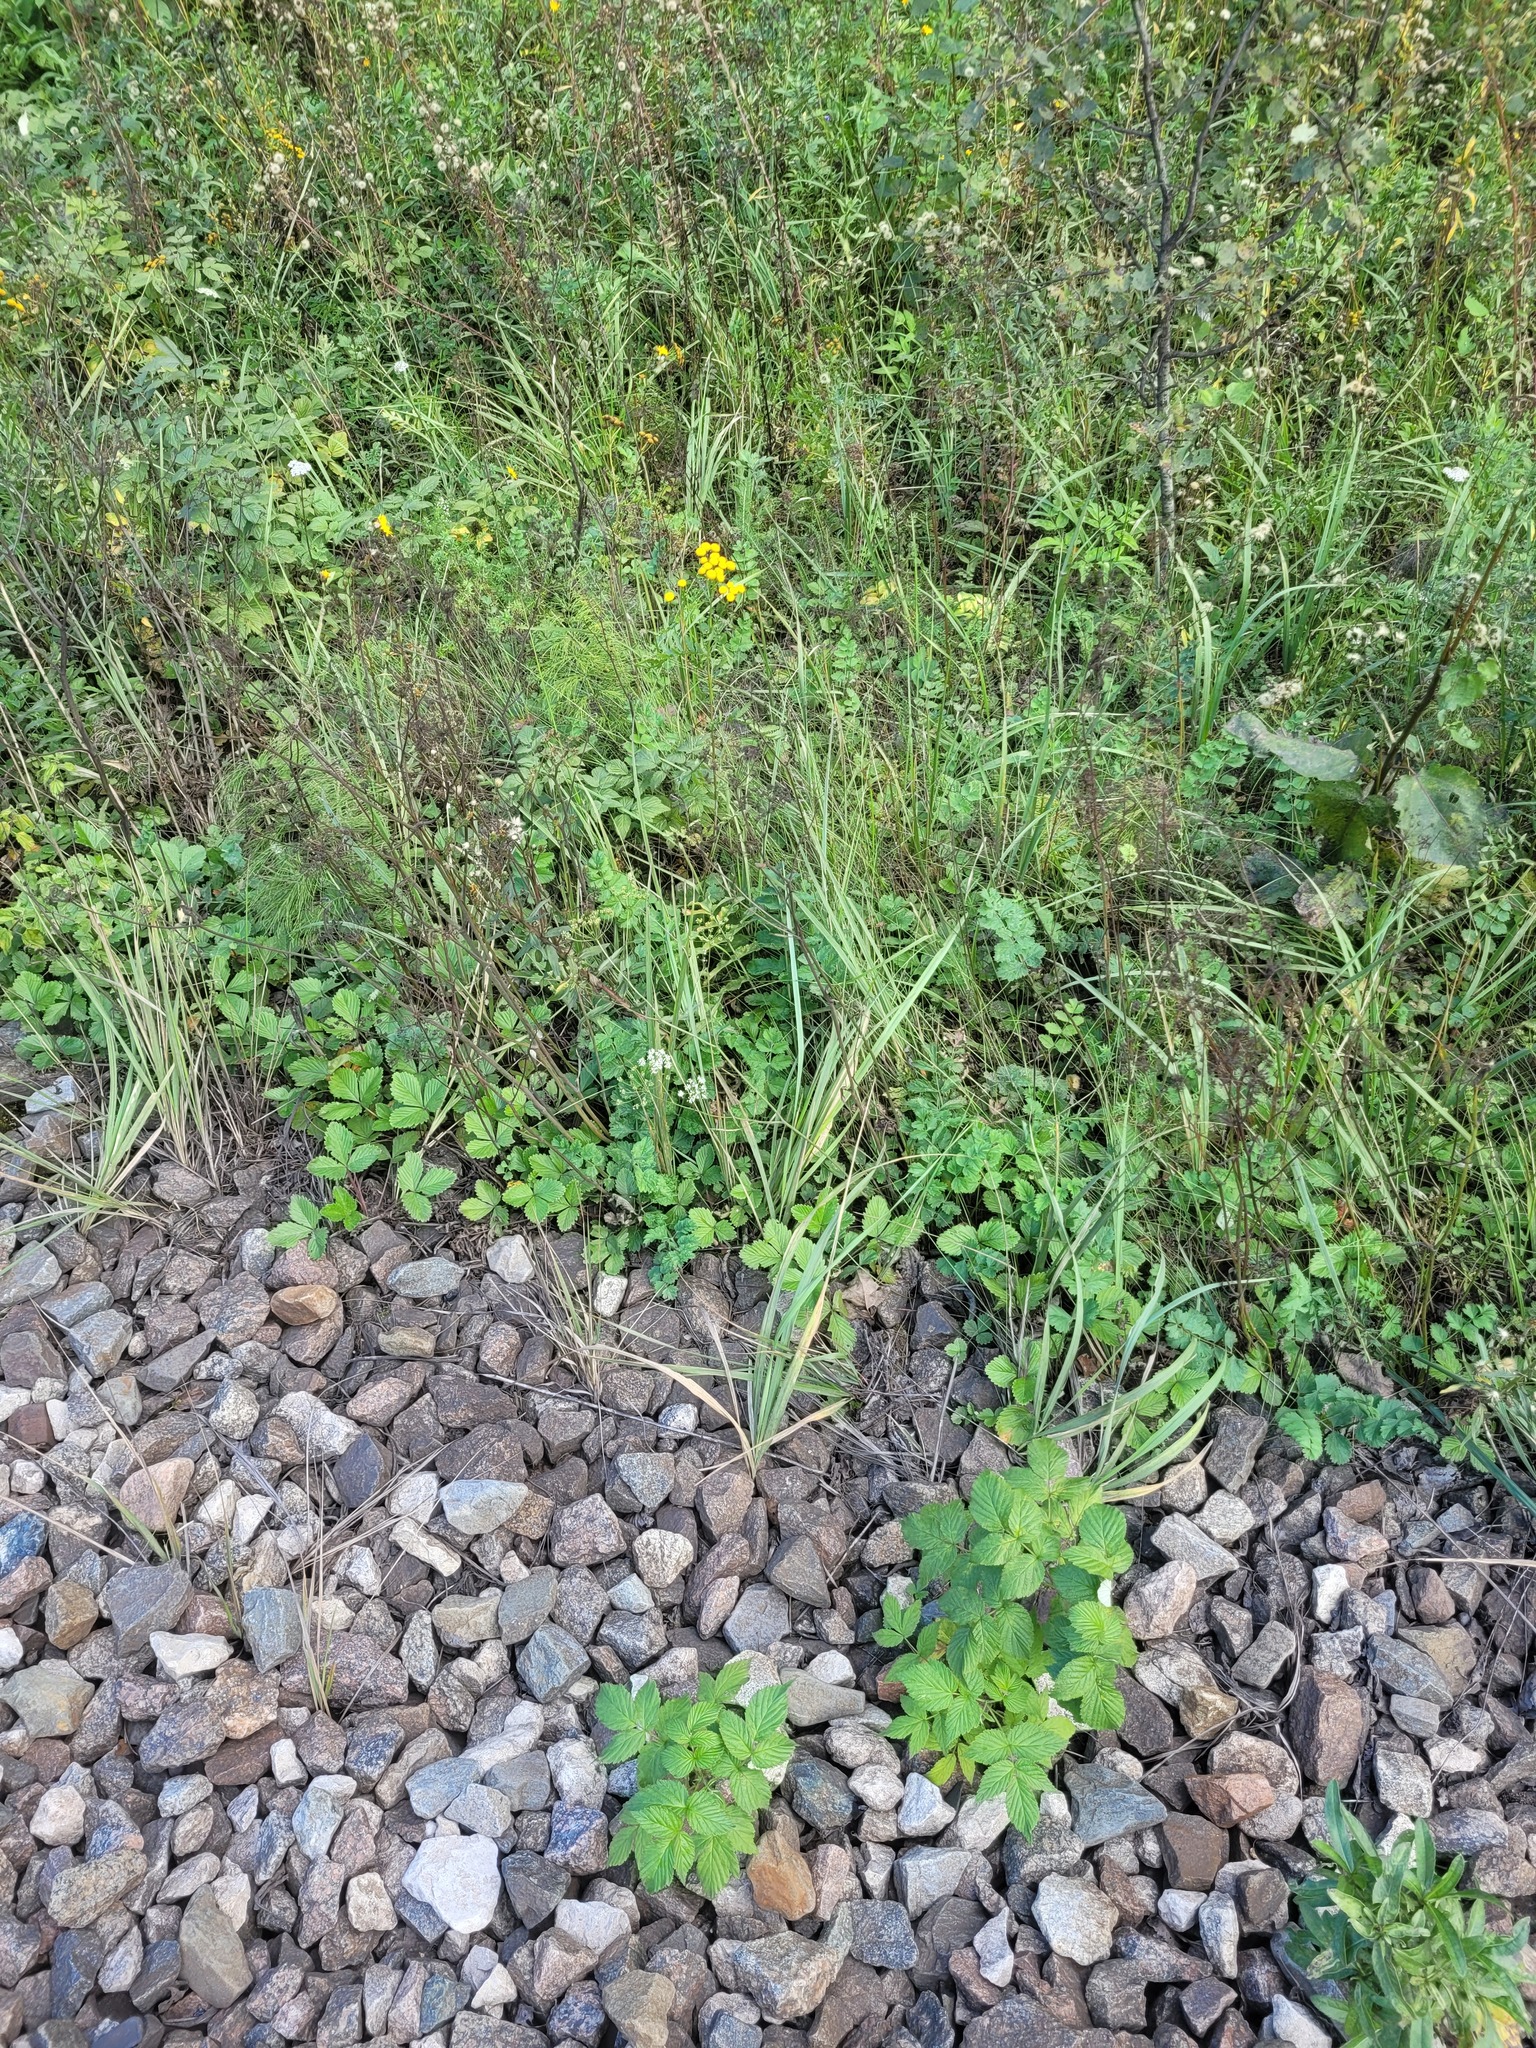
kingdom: Plantae
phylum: Tracheophyta
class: Magnoliopsida
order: Apiales
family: Apiaceae
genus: Pimpinella
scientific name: Pimpinella saxifraga
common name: Burnet-saxifrage
